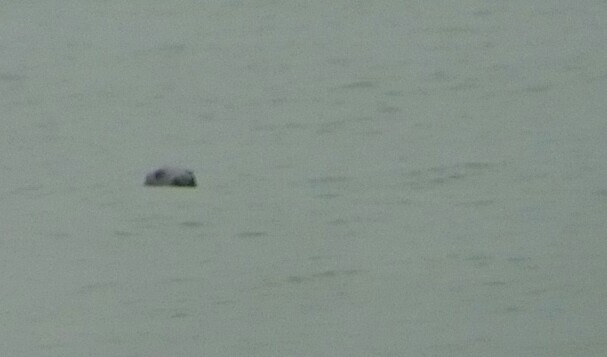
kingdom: Animalia
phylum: Chordata
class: Mammalia
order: Carnivora
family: Phocidae
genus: Halichoerus
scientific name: Halichoerus grypus
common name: Grey seal
